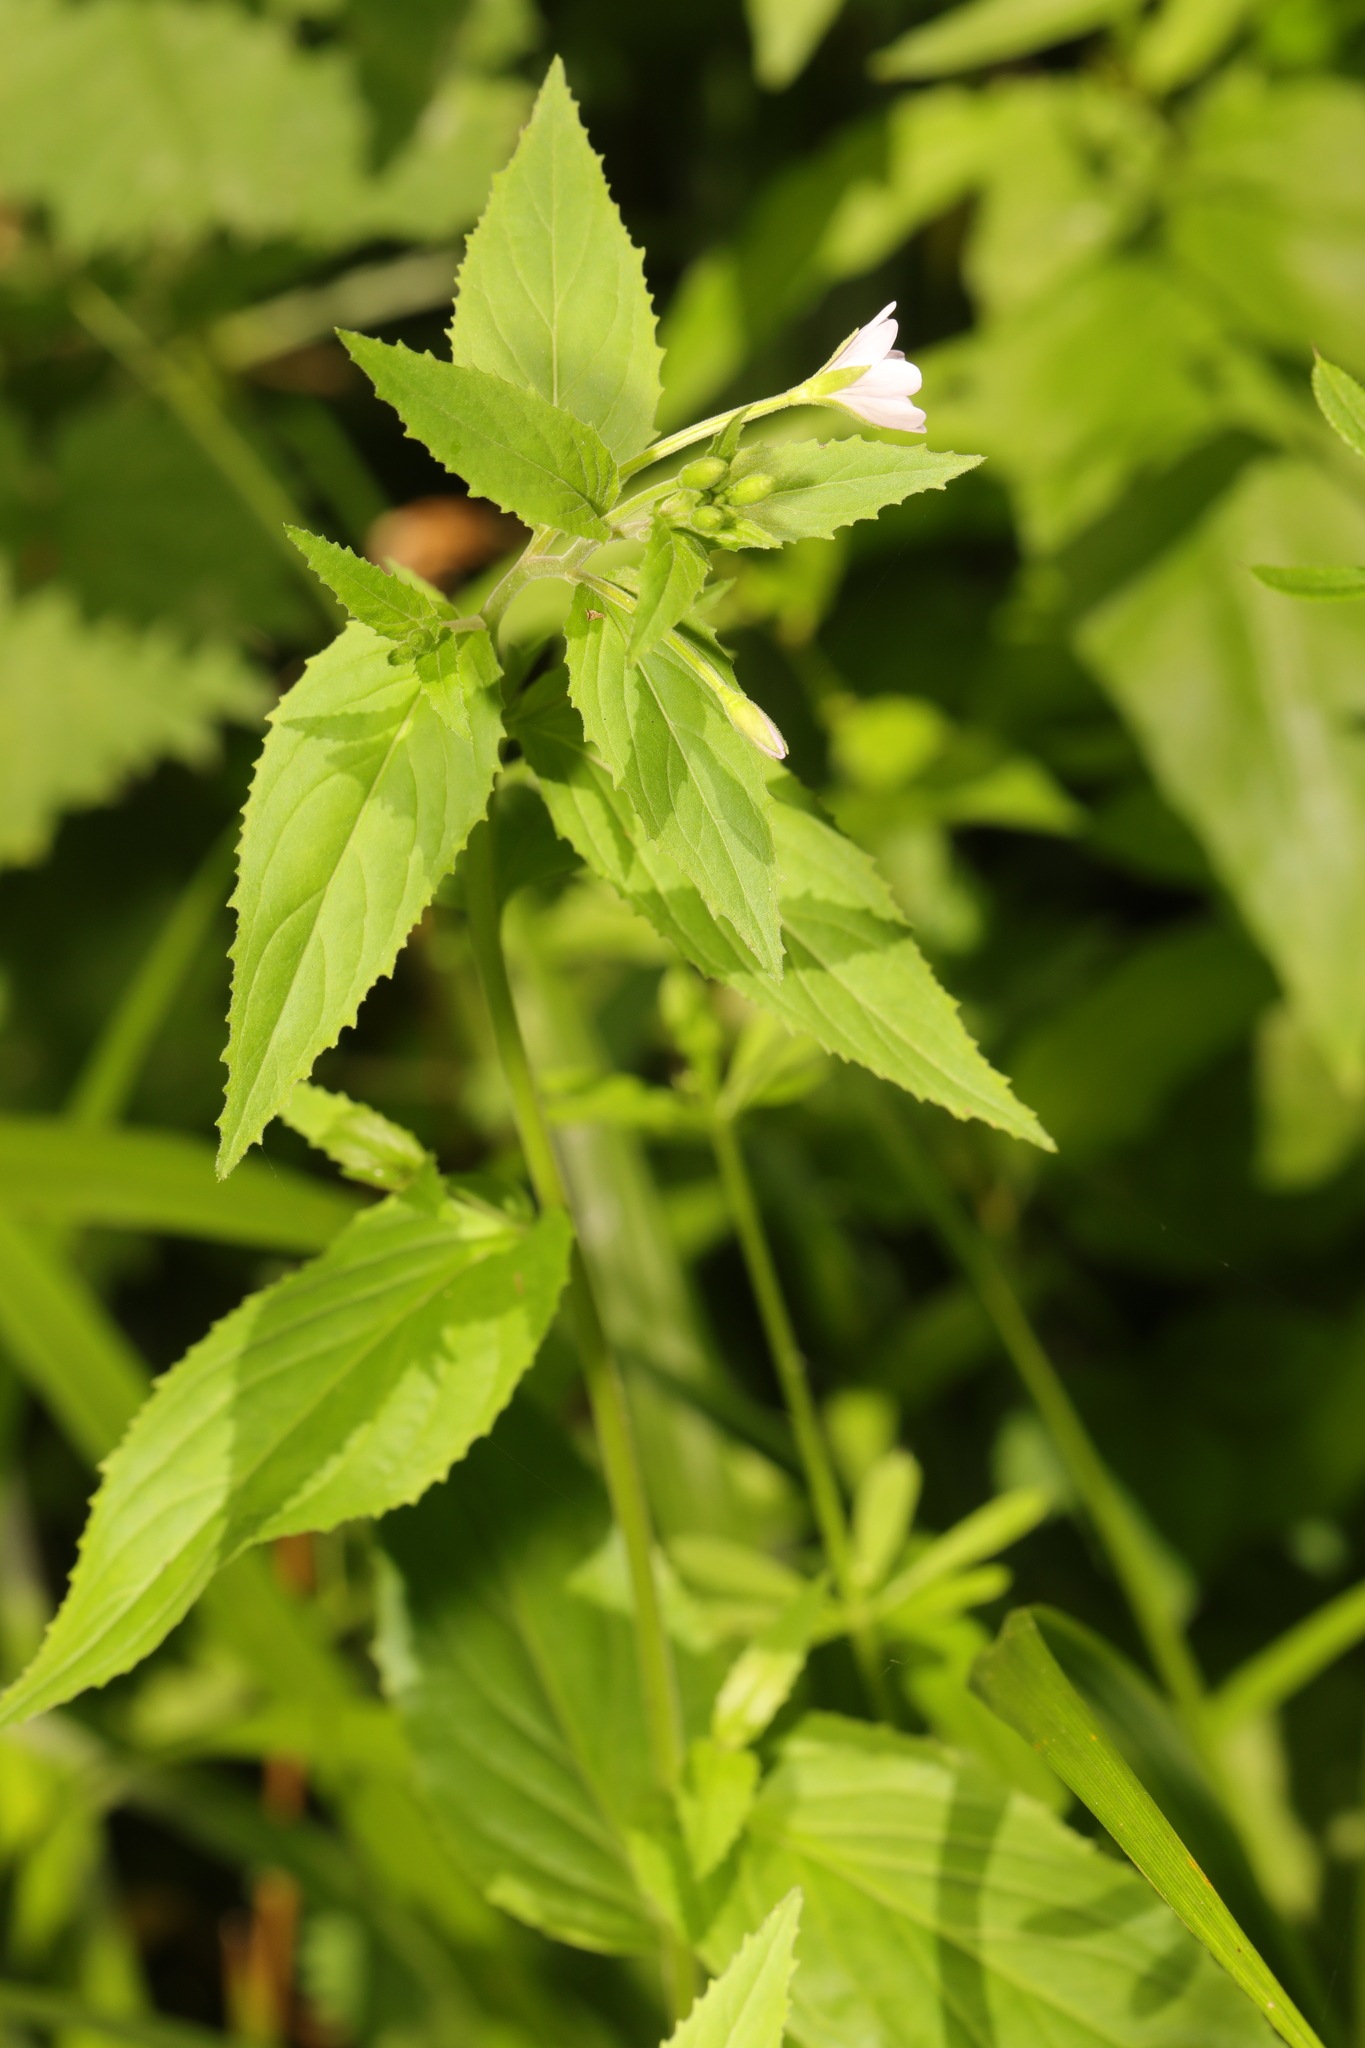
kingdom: Plantae
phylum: Tracheophyta
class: Magnoliopsida
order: Myrtales
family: Onagraceae
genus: Epilobium
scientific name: Epilobium montanum
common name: Broad-leaved willowherb
